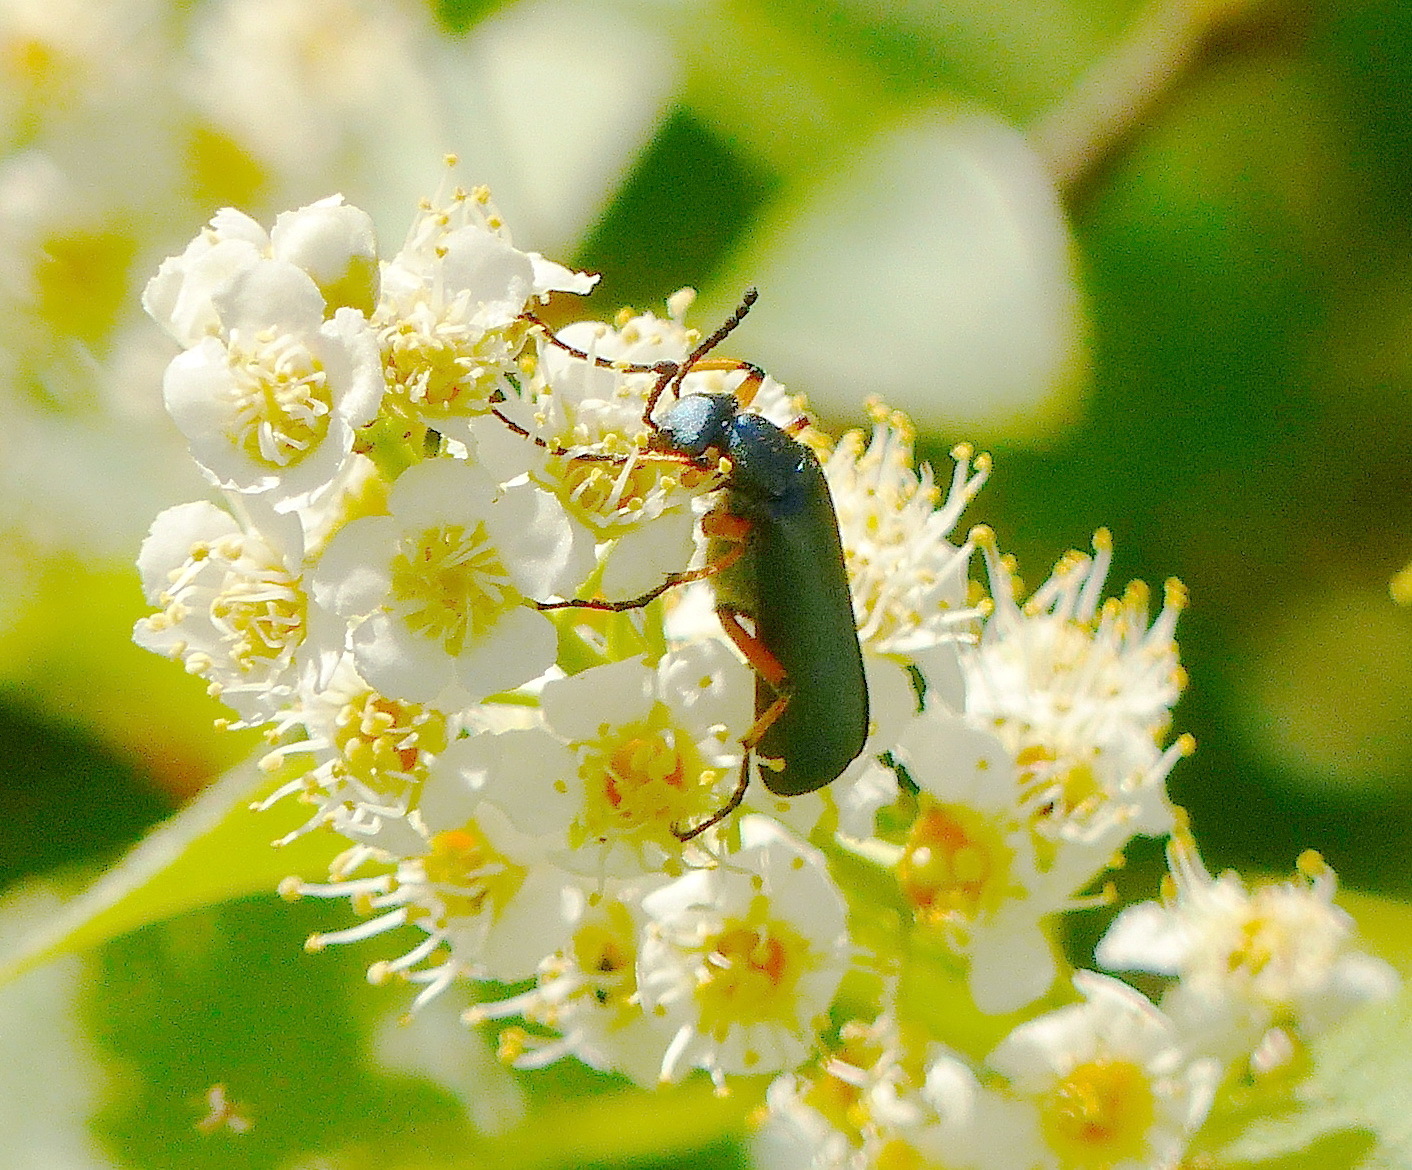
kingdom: Animalia
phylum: Arthropoda
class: Insecta
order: Coleoptera
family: Meloidae
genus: Lytta
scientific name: Lytta sayi
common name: Say's blister beetle
